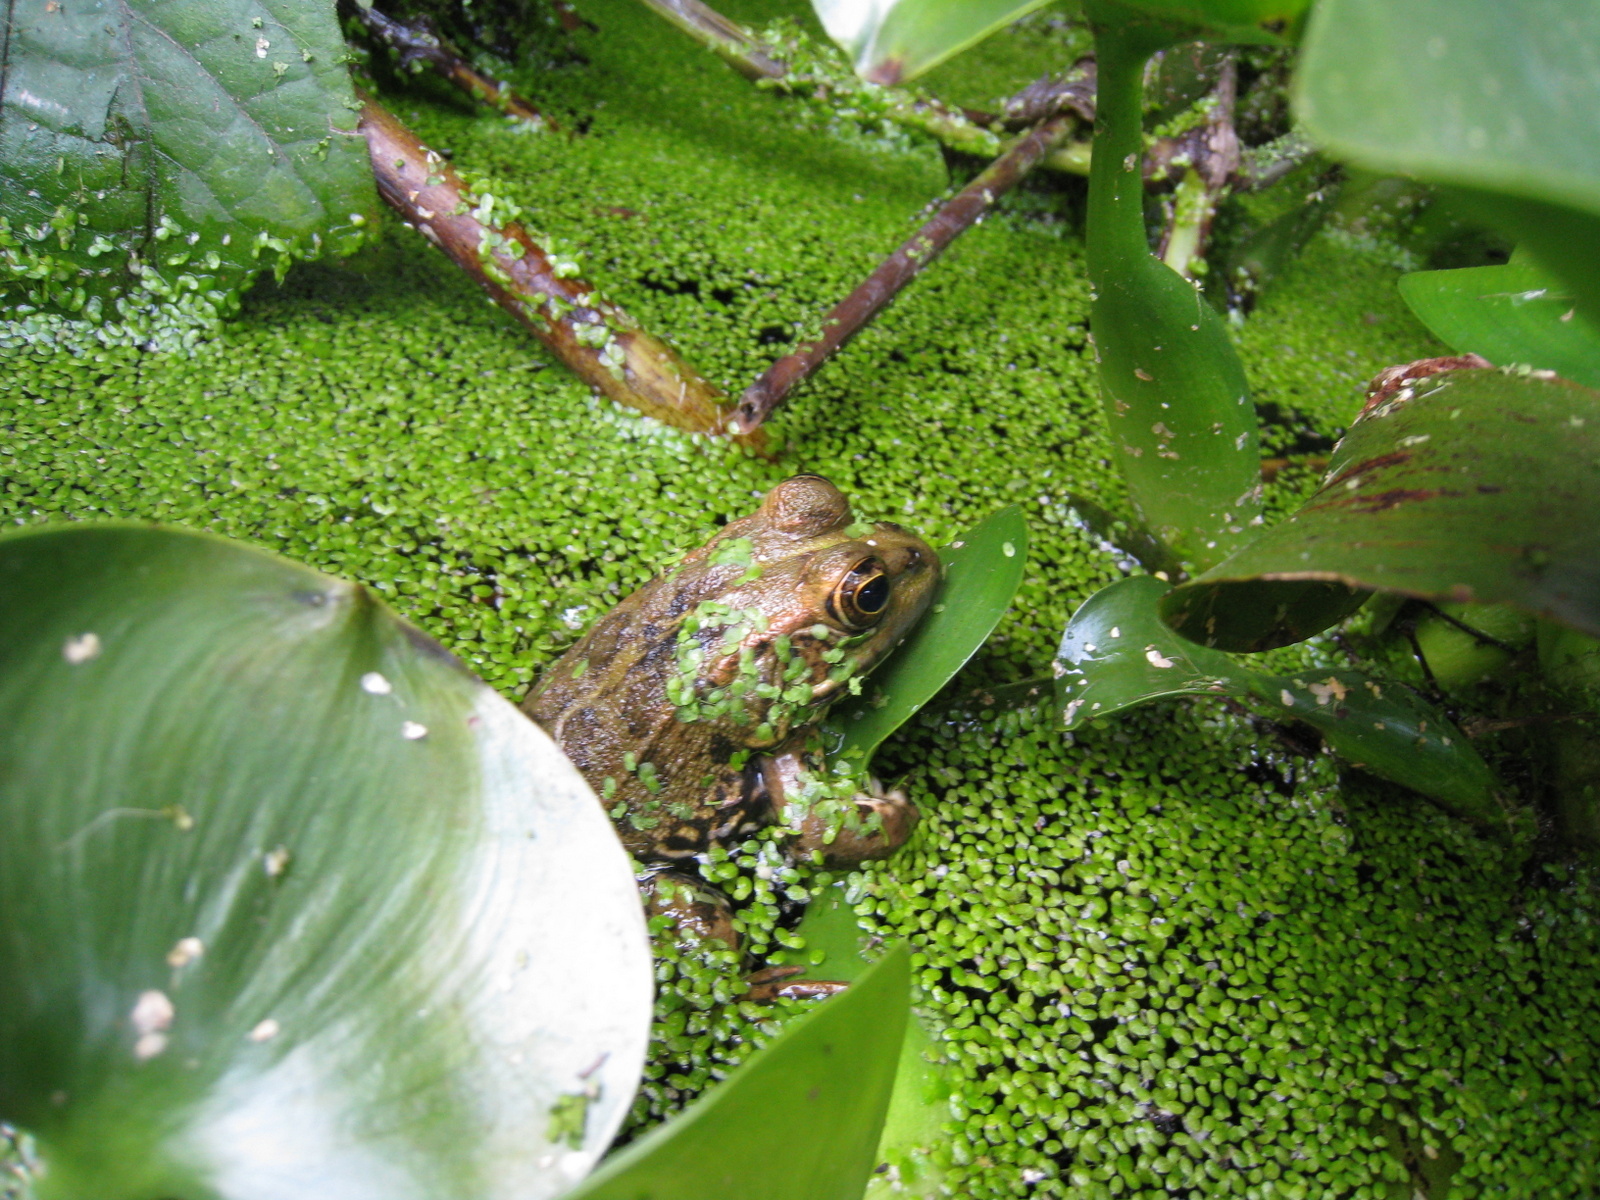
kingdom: Animalia
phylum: Chordata
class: Amphibia
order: Anura
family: Ranidae
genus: Pelophylax
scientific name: Pelophylax perezi
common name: Perez's frog
